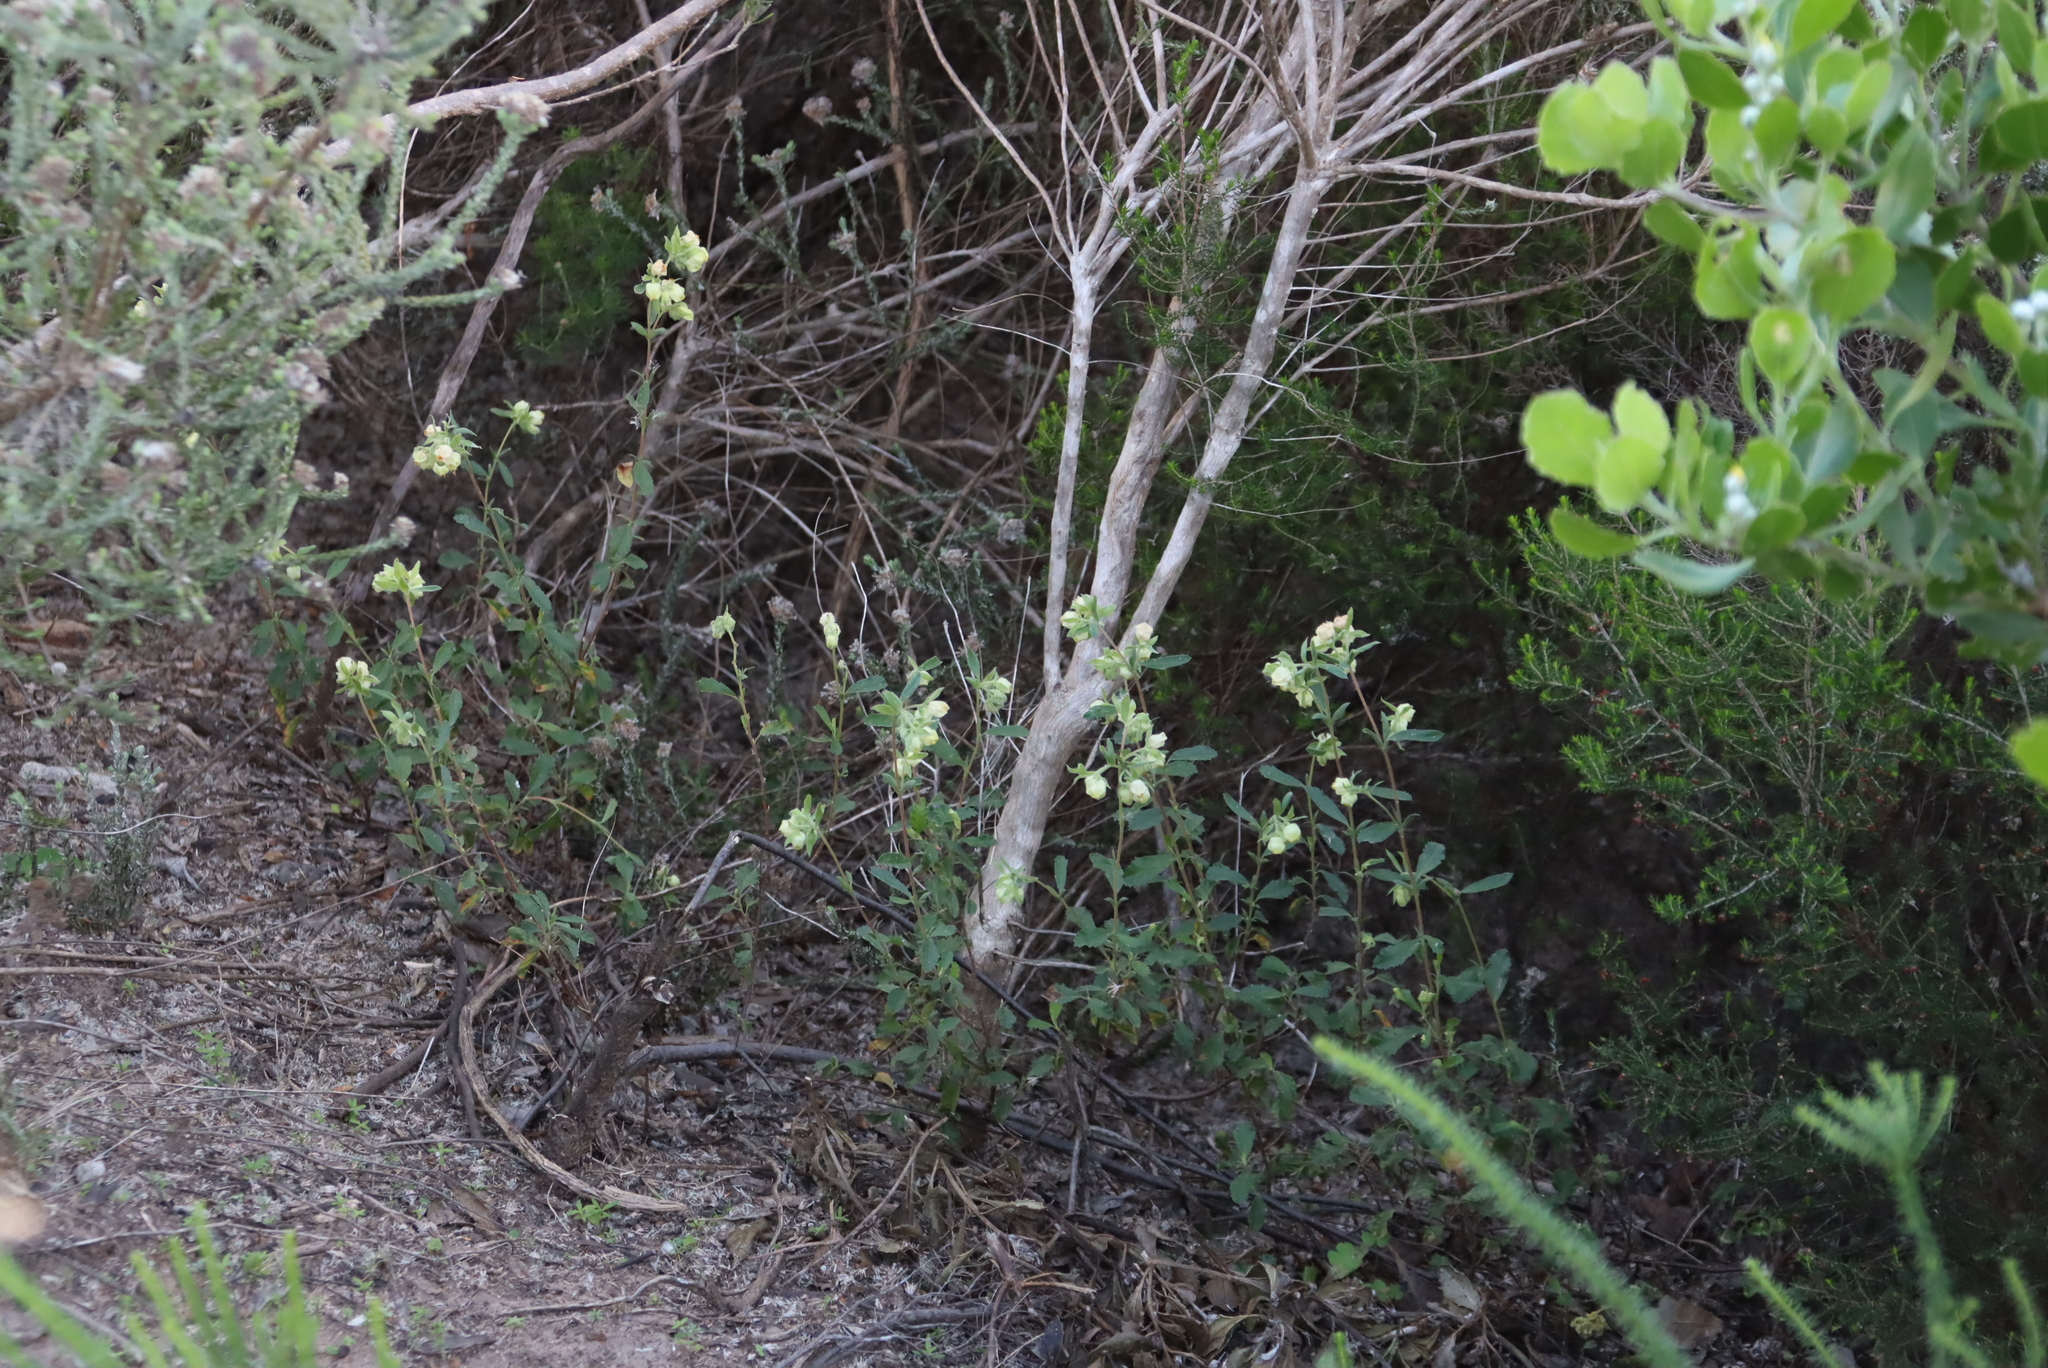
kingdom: Plantae
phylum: Tracheophyta
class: Magnoliopsida
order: Malvales
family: Malvaceae
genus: Hermannia
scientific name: Hermannia hyssopifolia
